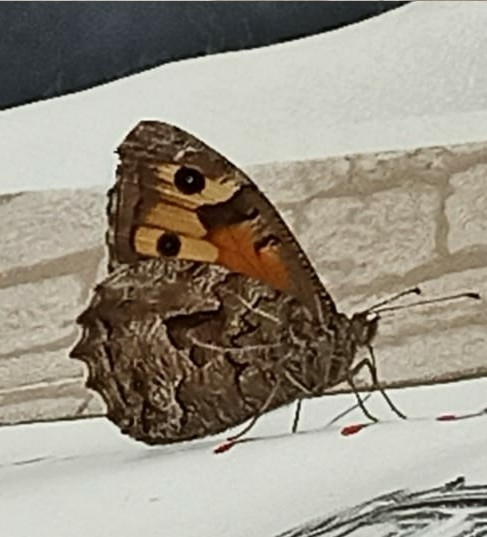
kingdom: Animalia
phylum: Arthropoda
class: Insecta
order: Lepidoptera
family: Nymphalidae
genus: Hipparchia
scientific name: Hipparchia semele
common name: Grayling
